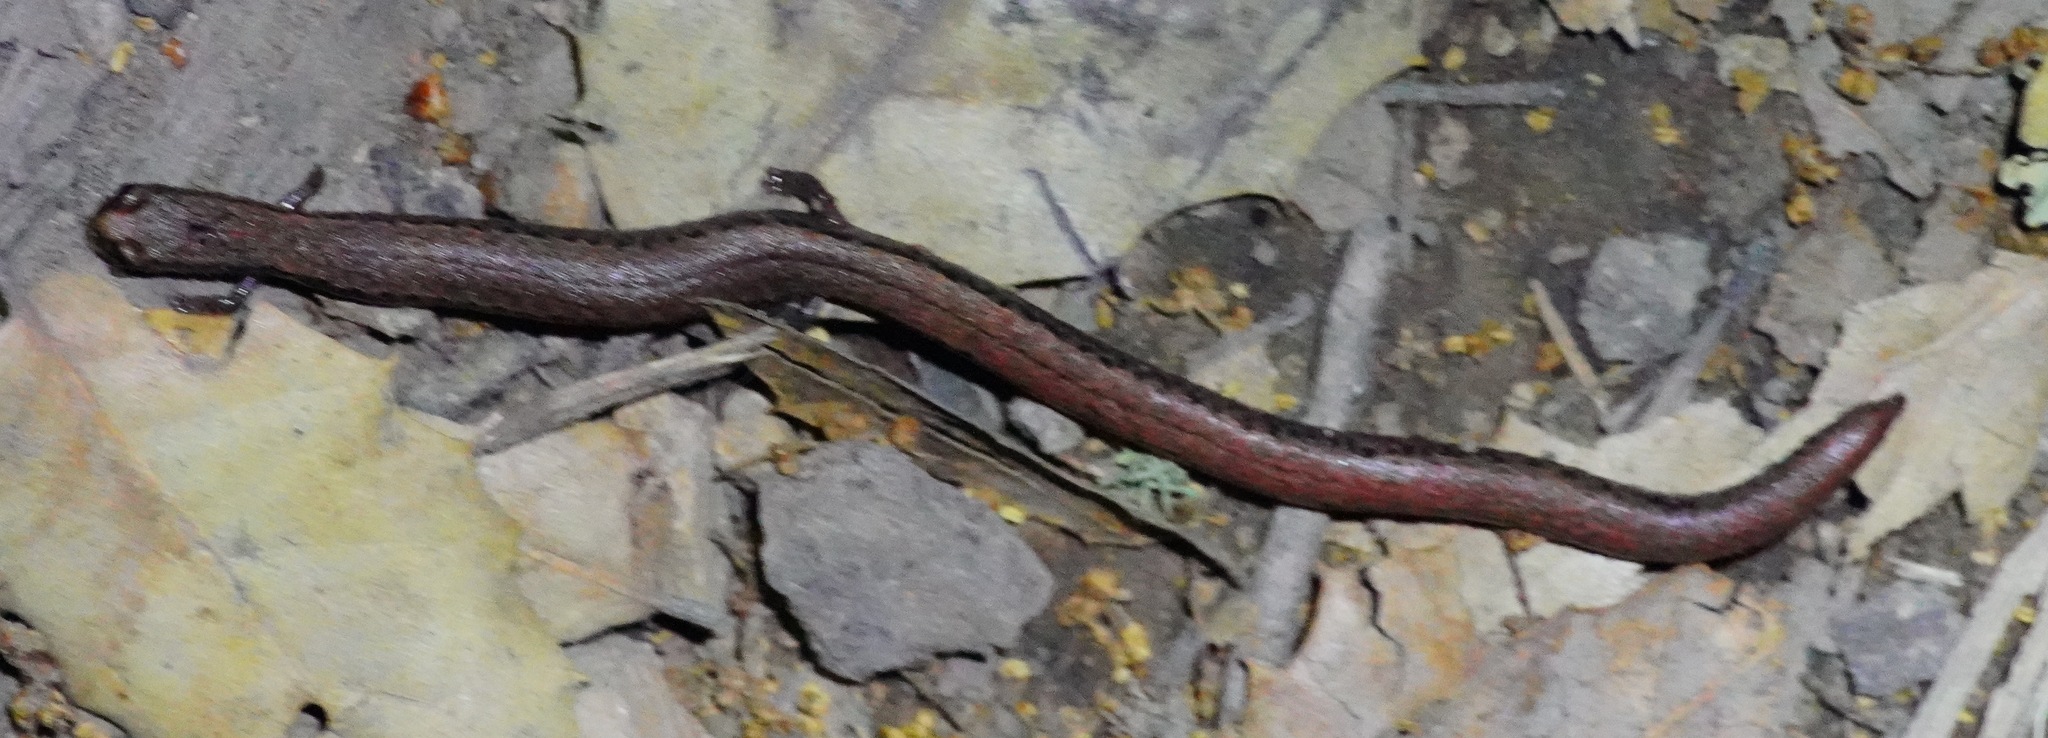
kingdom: Animalia
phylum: Chordata
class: Amphibia
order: Caudata
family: Plethodontidae
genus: Batrachoseps
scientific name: Batrachoseps attenuatus
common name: California slender salamander
